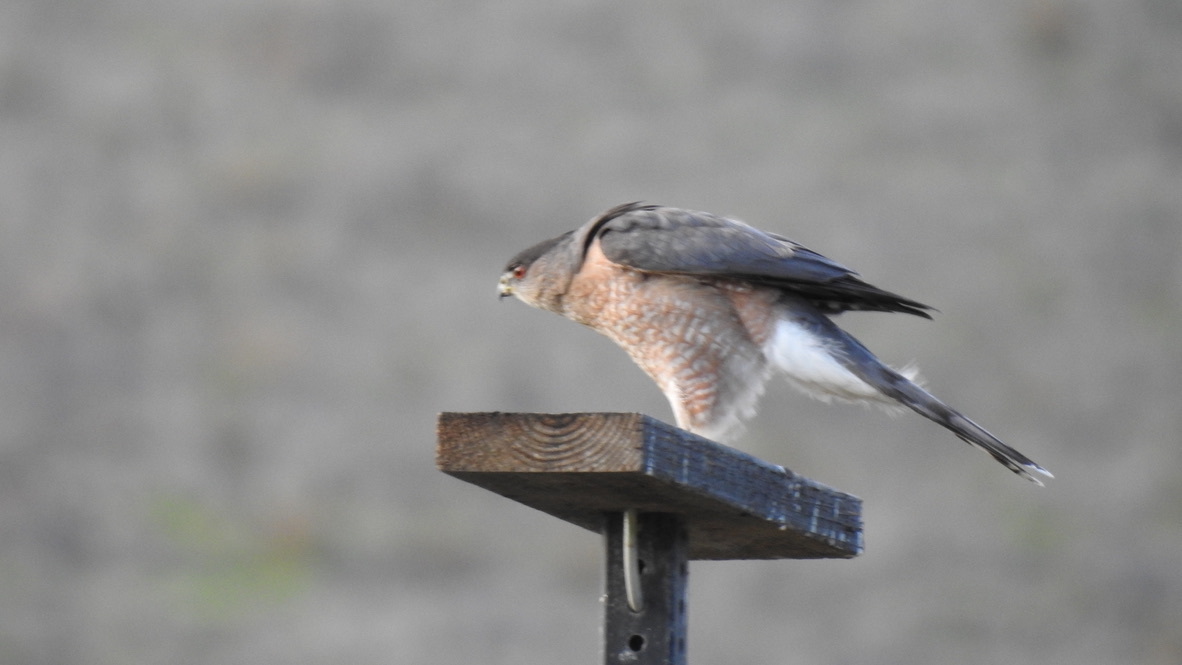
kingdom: Animalia
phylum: Chordata
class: Aves
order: Accipitriformes
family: Accipitridae
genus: Accipiter
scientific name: Accipiter cooperii
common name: Cooper's hawk
